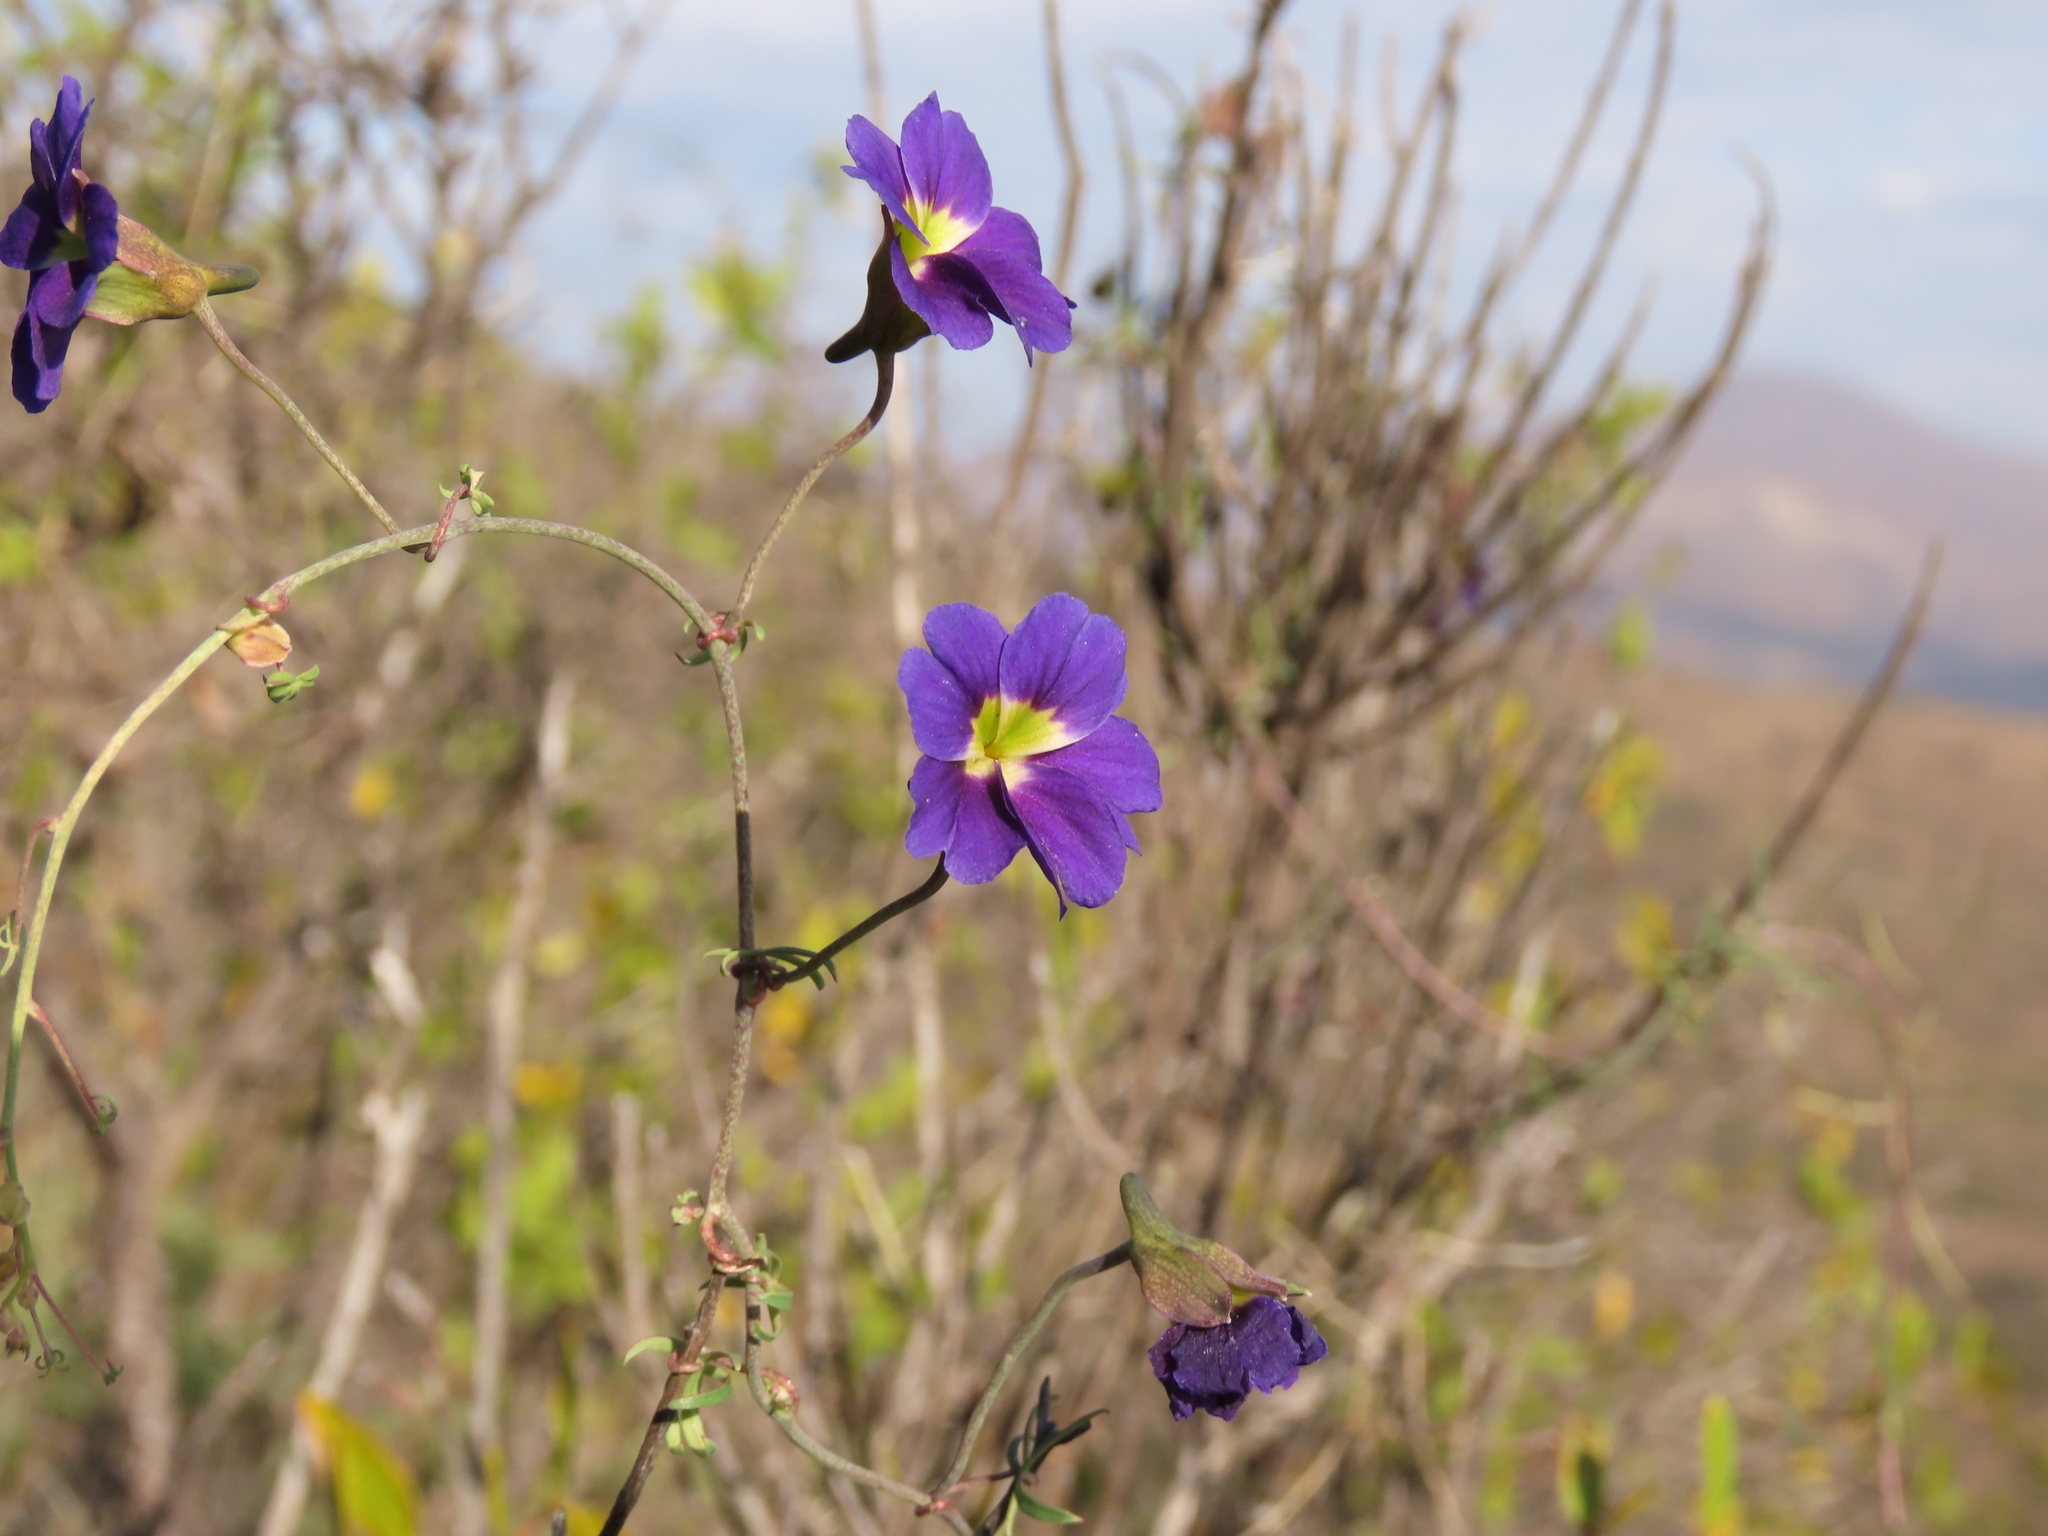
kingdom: Plantae
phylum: Tracheophyta
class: Magnoliopsida
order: Brassicales
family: Tropaeolaceae
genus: Tropaeolum
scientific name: Tropaeolum azureum
